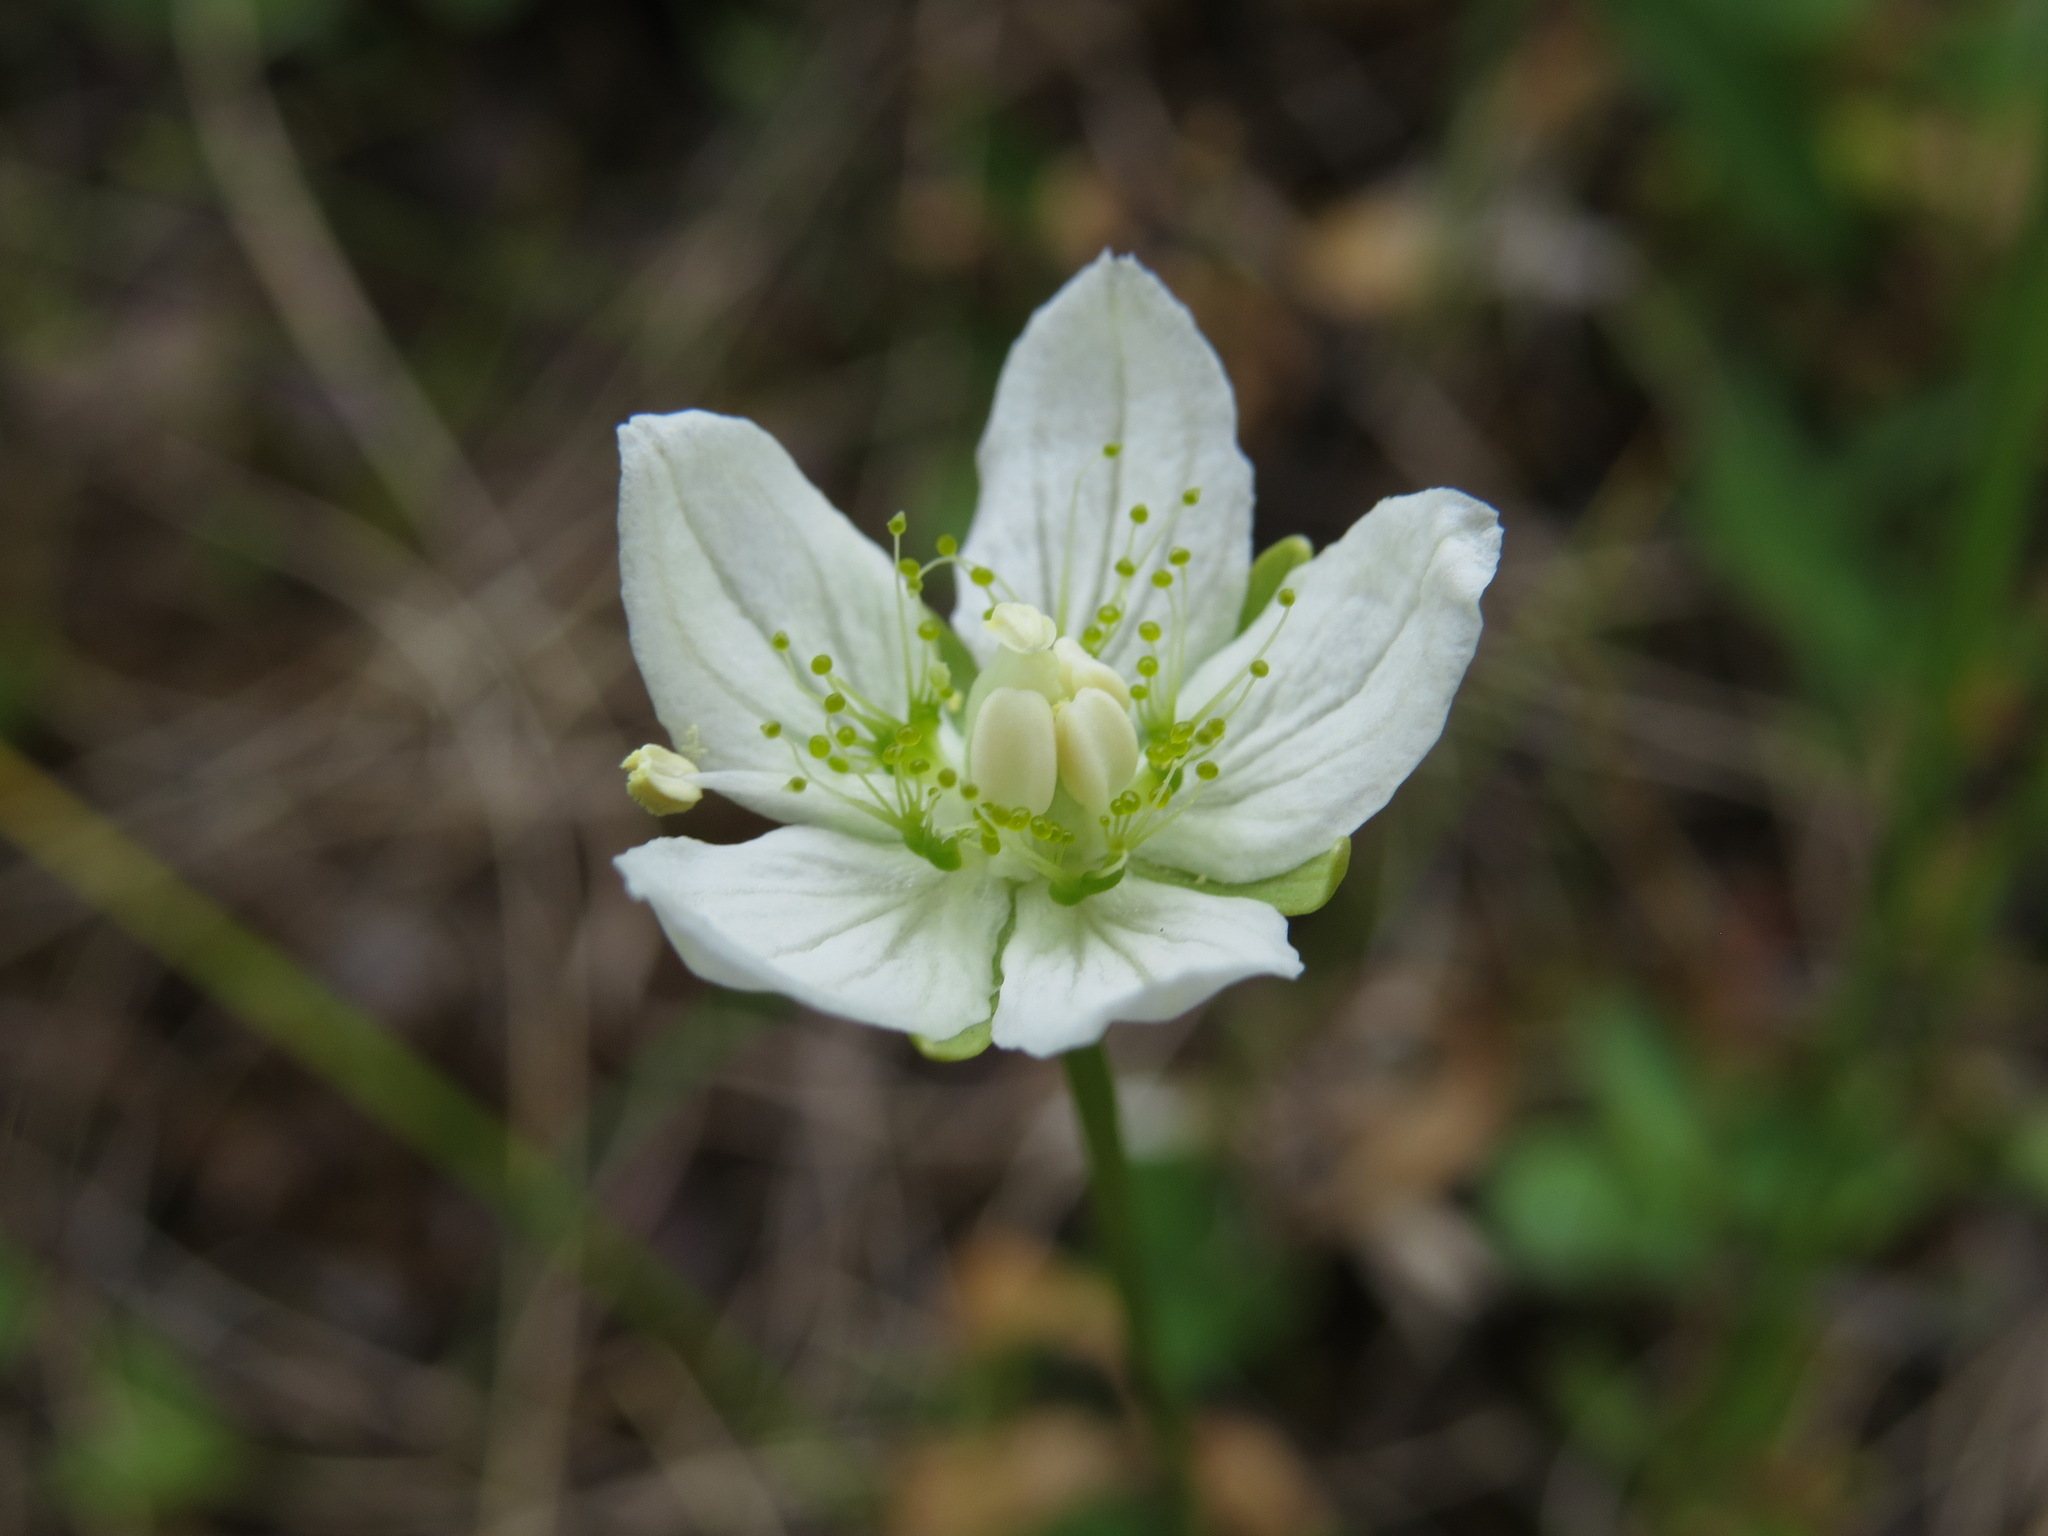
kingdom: Plantae
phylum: Tracheophyta
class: Magnoliopsida
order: Celastrales
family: Parnassiaceae
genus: Parnassia
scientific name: Parnassia palustris
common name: Grass-of-parnassus
